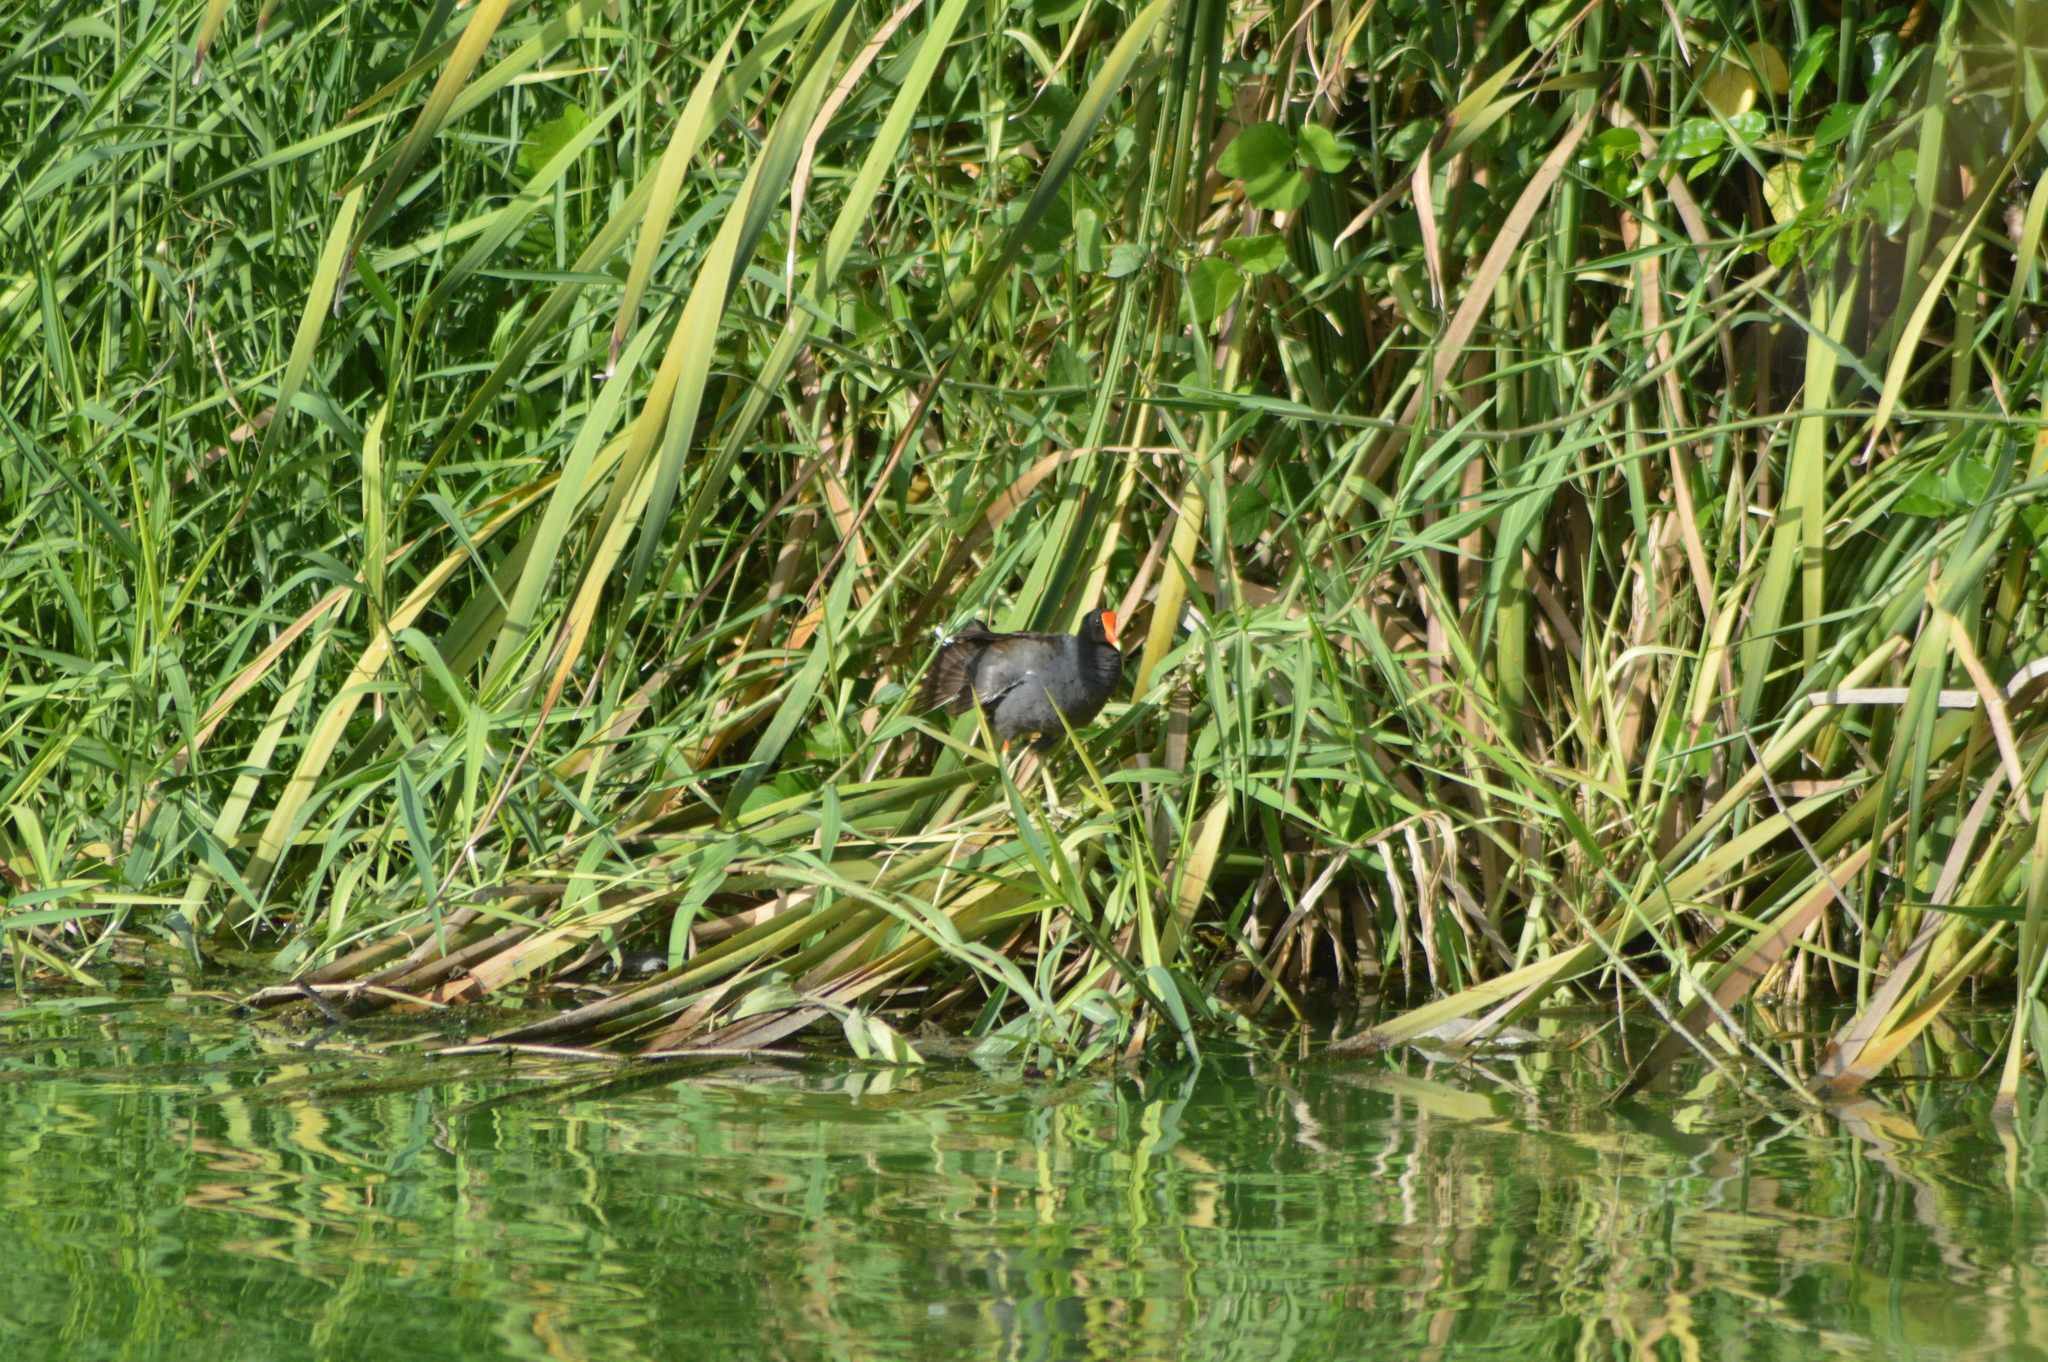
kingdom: Animalia
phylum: Chordata
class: Aves
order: Gruiformes
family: Rallidae
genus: Gallinula
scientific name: Gallinula chloropus
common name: Common moorhen
